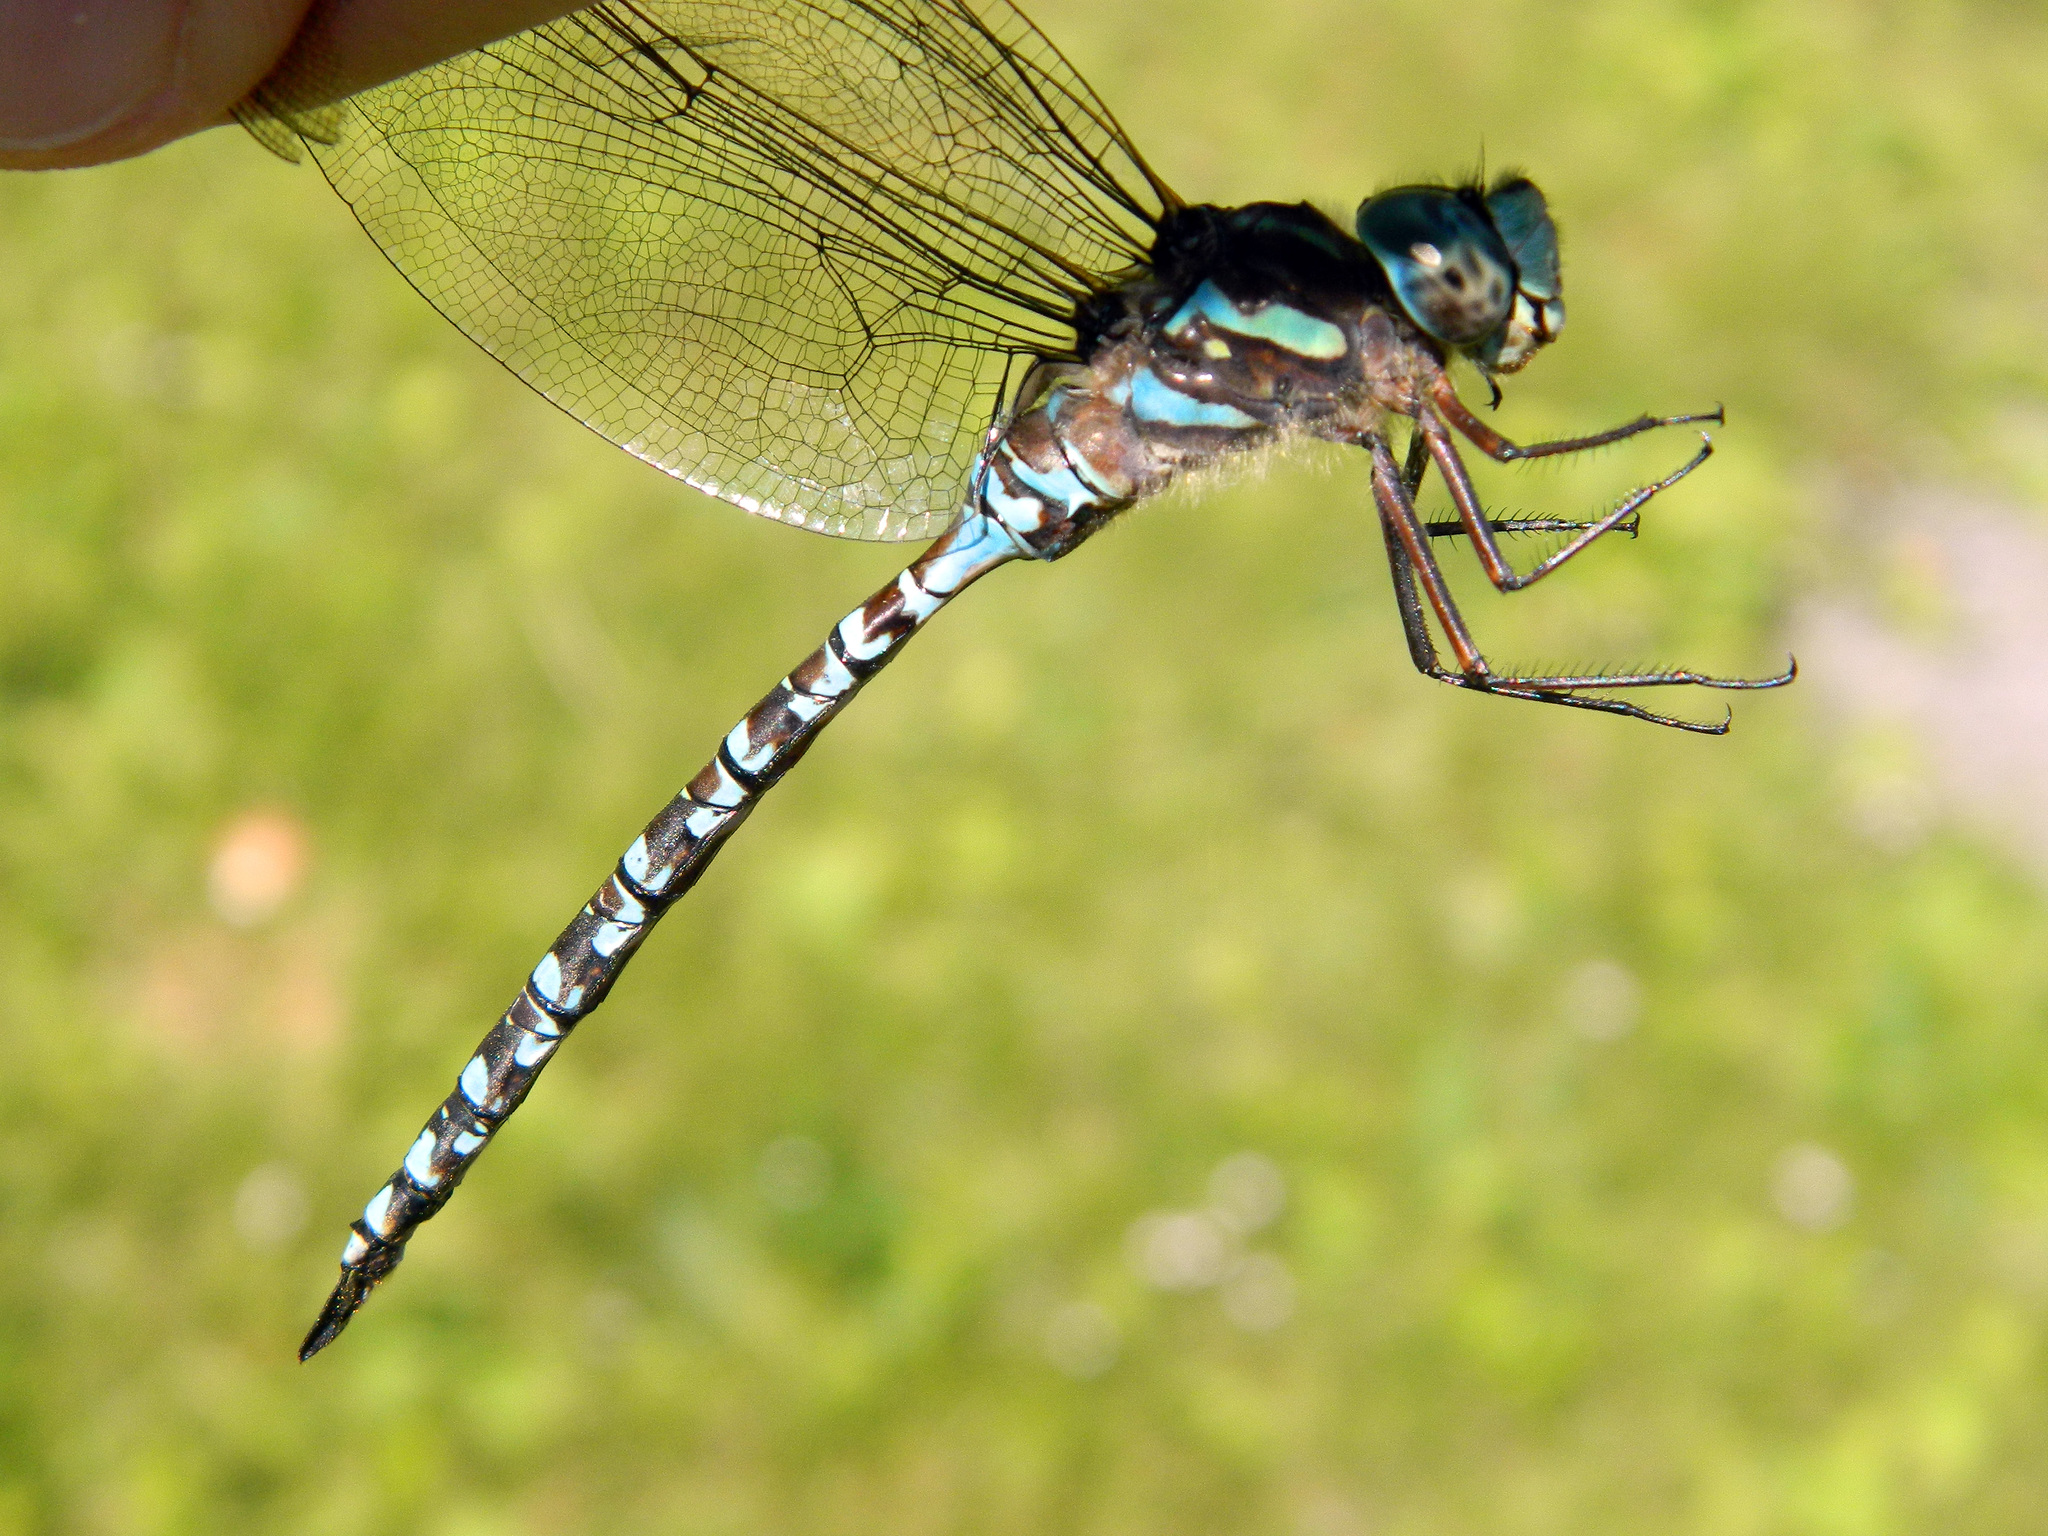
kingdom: Animalia
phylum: Arthropoda
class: Insecta
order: Odonata
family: Aeshnidae
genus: Aeshna
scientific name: Aeshna canadensis
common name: Canada darner
